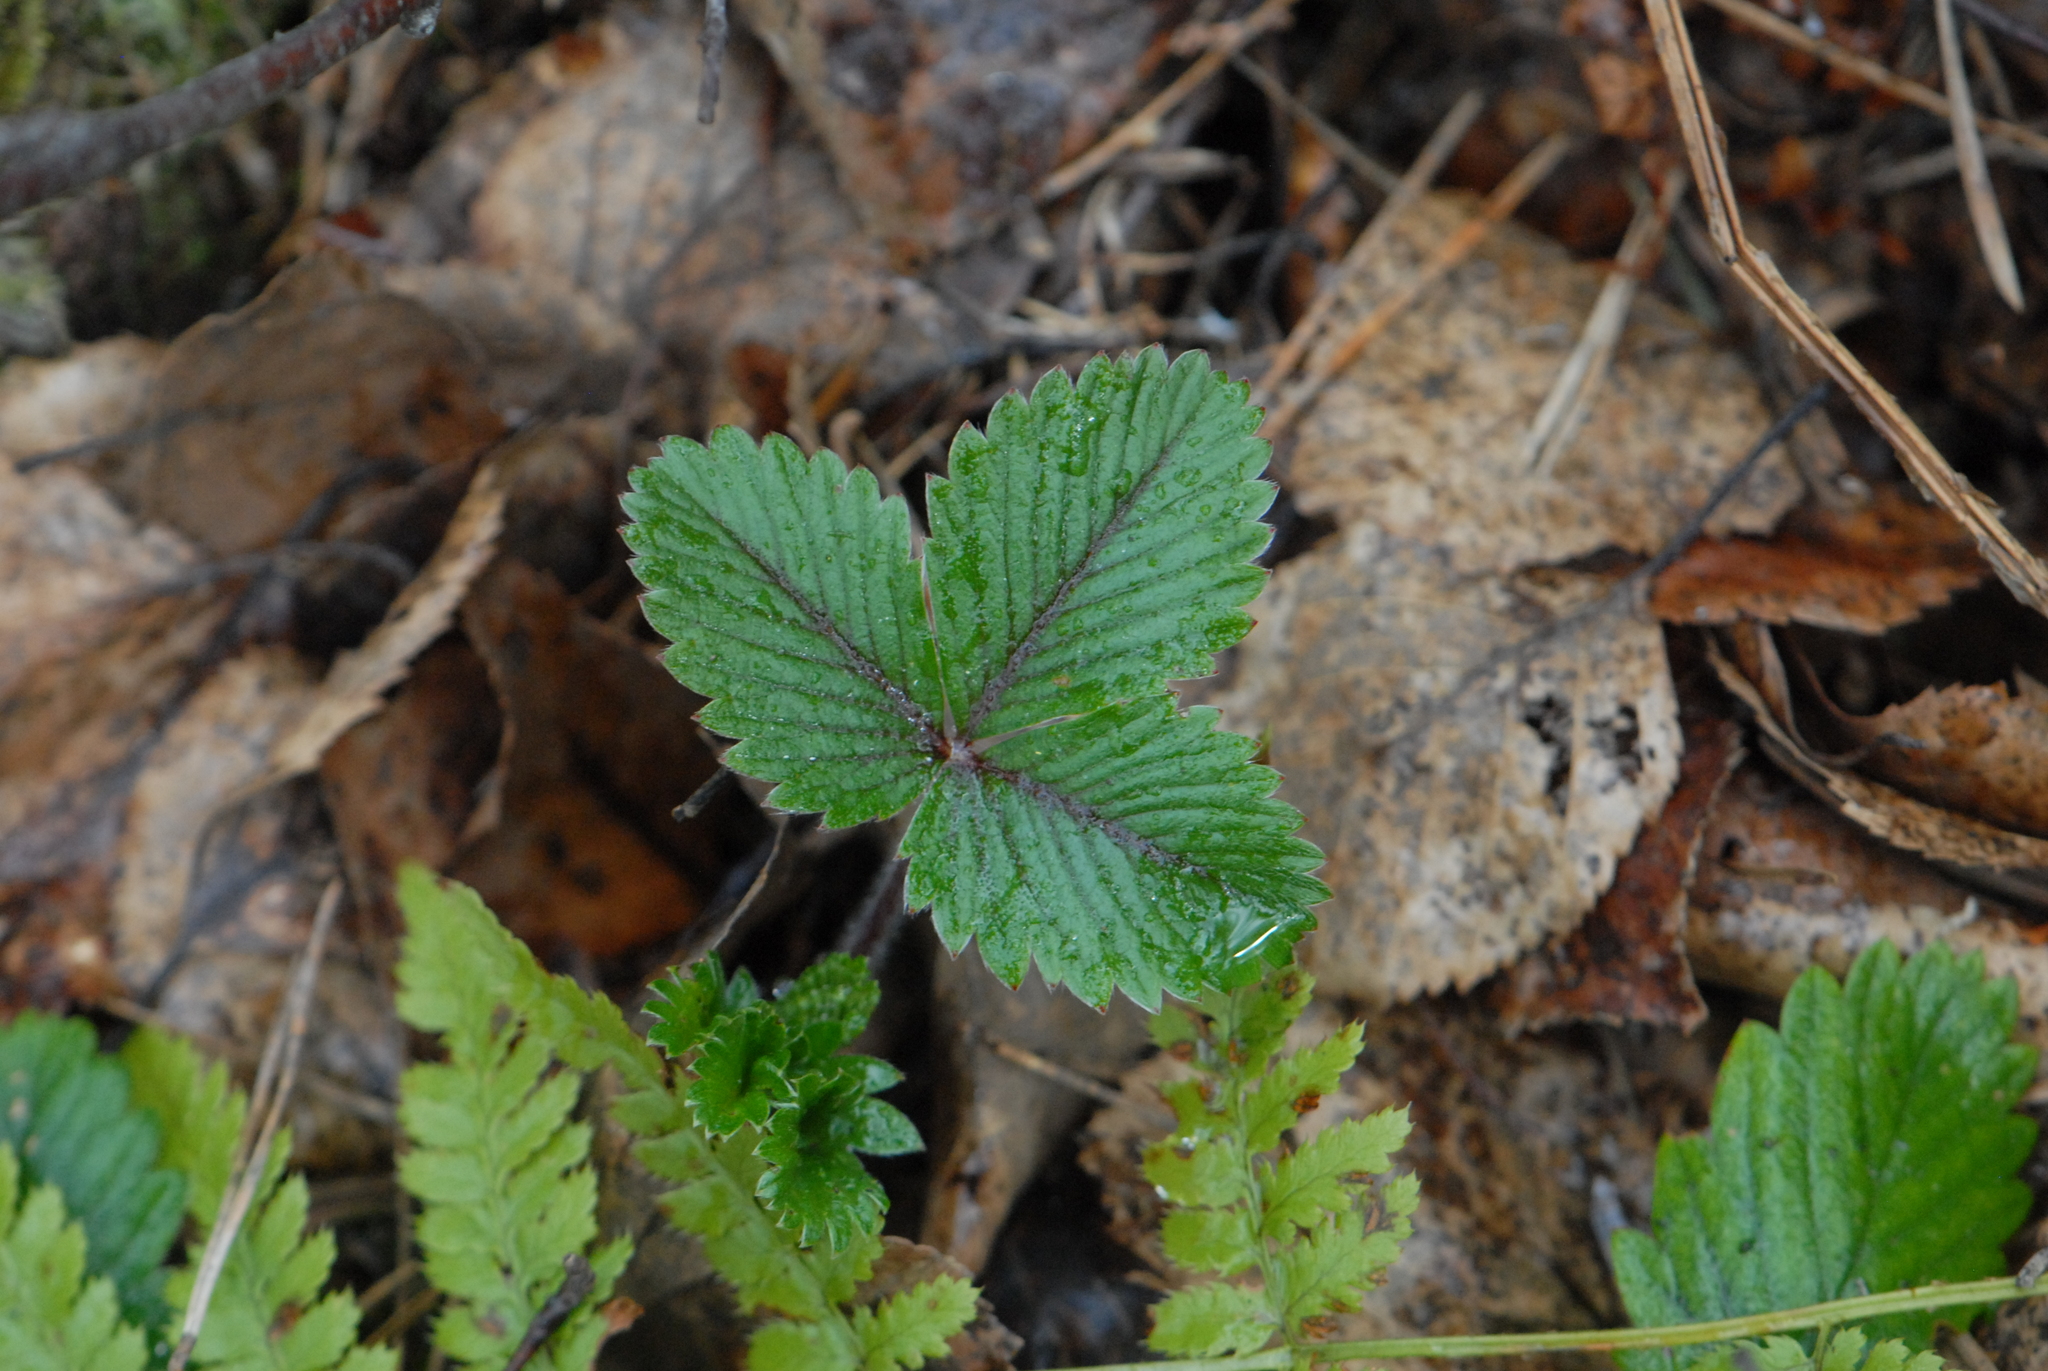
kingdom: Plantae
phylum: Tracheophyta
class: Magnoliopsida
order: Rosales
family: Rosaceae
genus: Fragaria
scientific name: Fragaria vesca
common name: Wild strawberry
